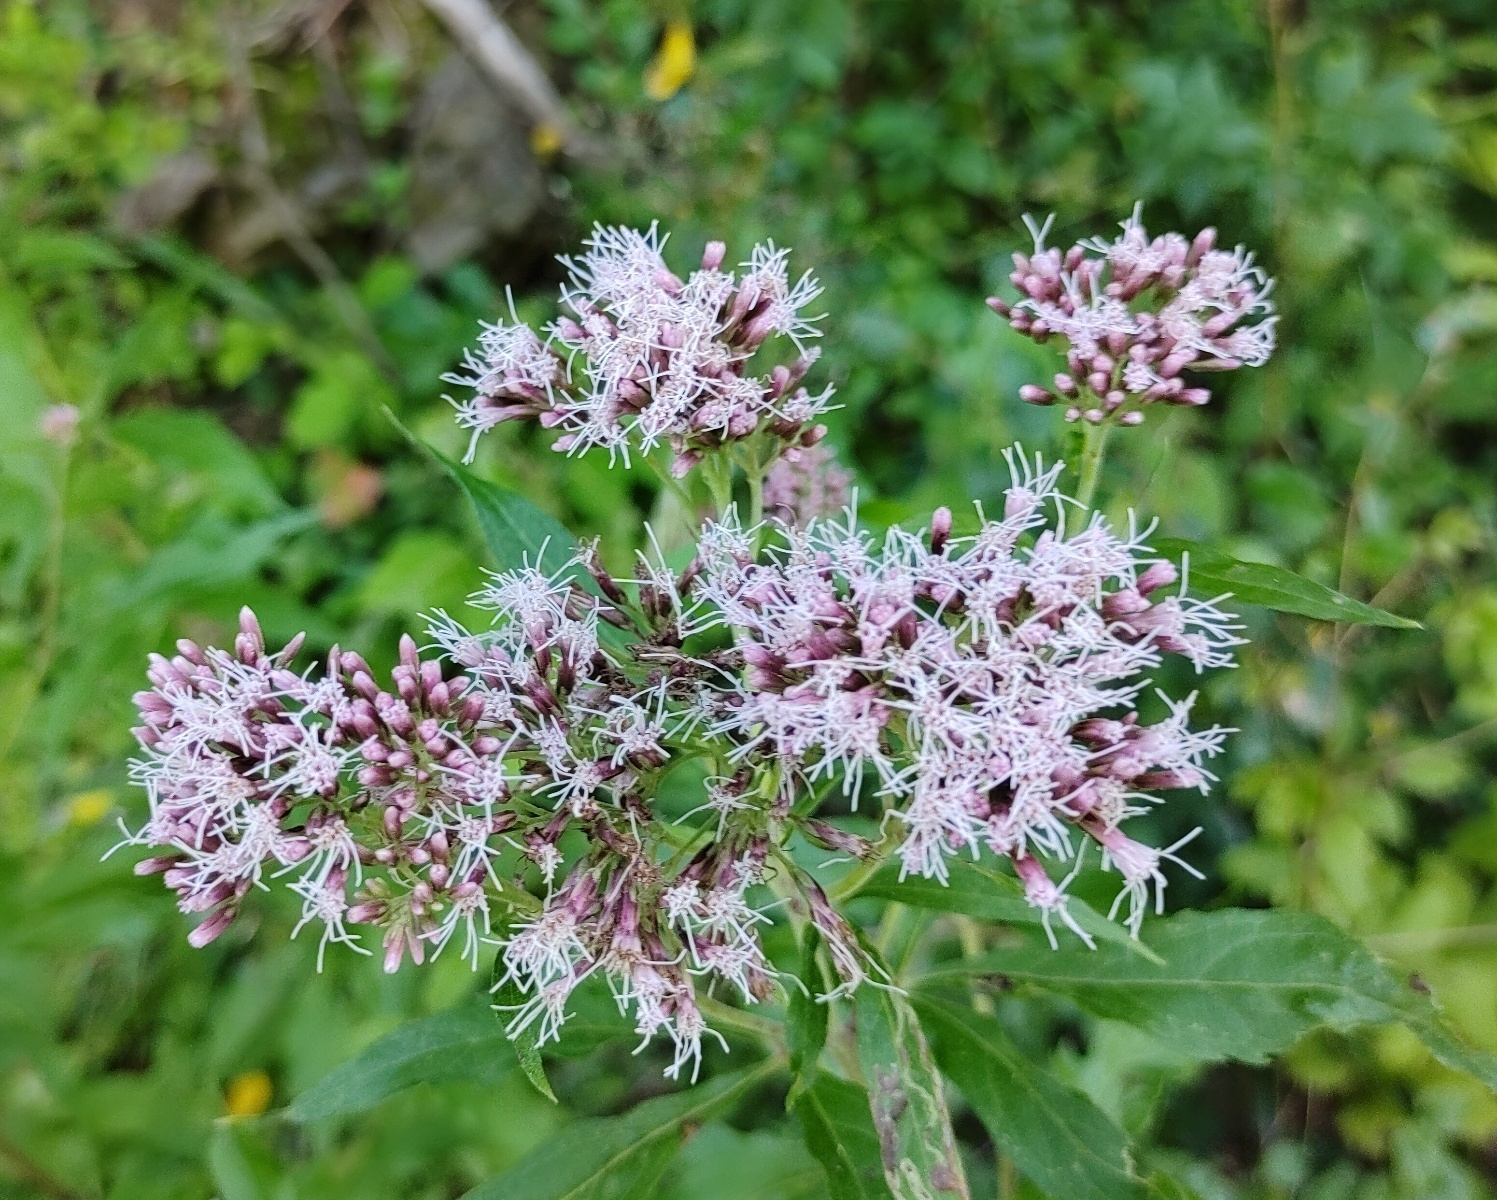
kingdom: Plantae
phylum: Tracheophyta
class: Magnoliopsida
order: Asterales
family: Asteraceae
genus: Eupatorium
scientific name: Eupatorium cannabinum
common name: Hemp-agrimony
